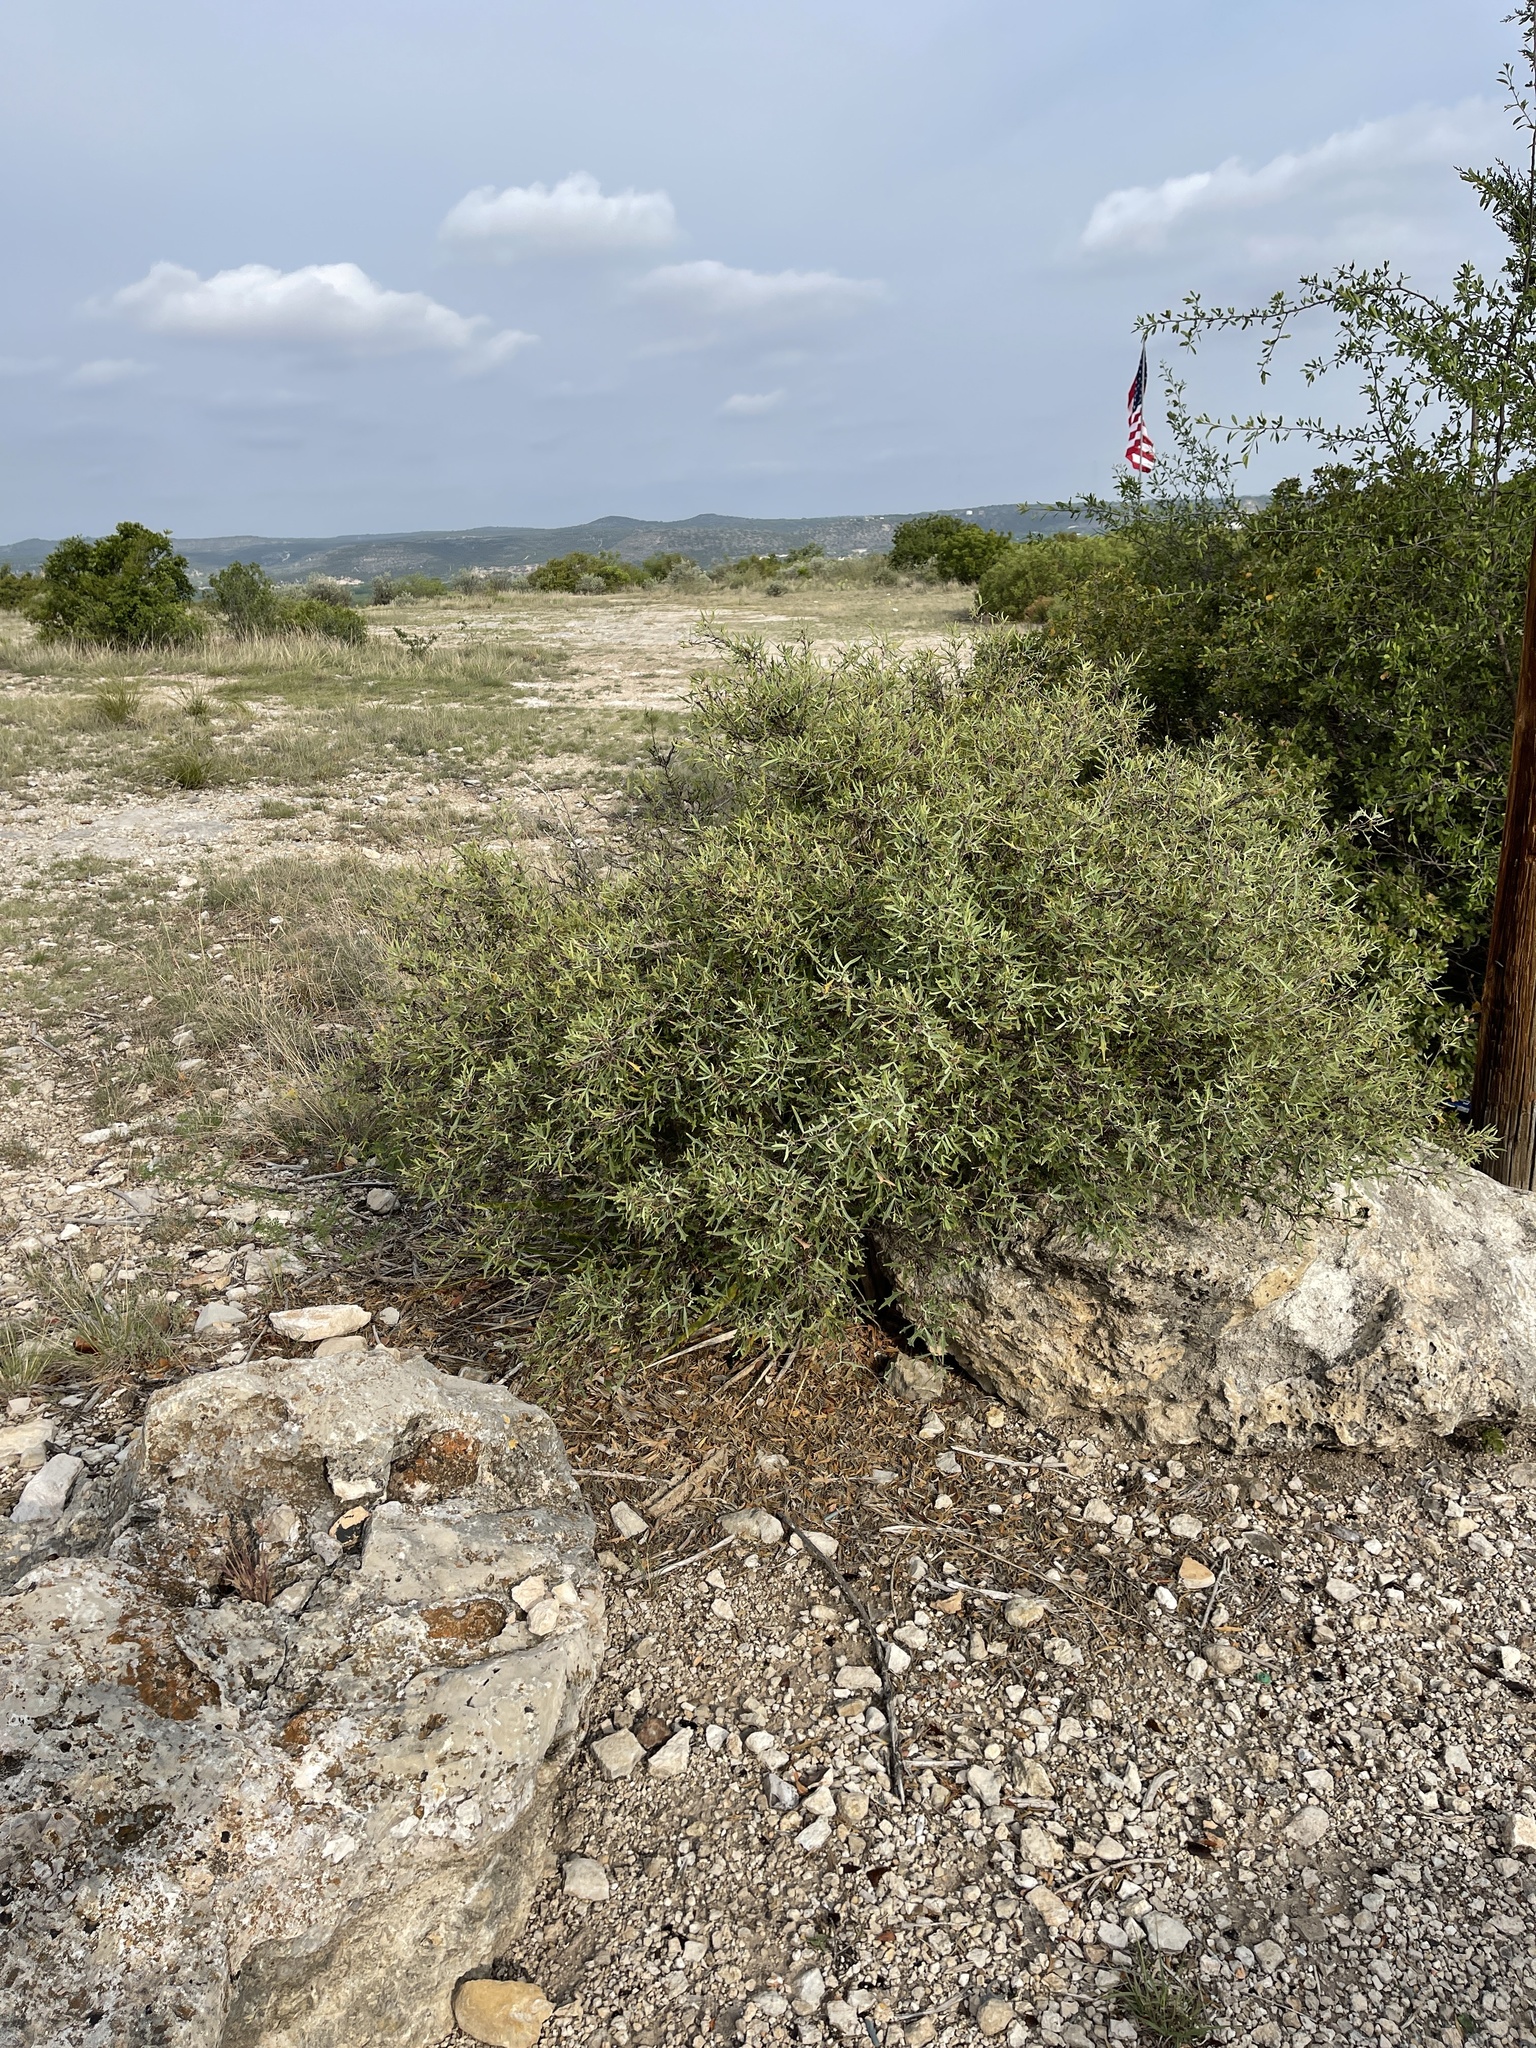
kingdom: Plantae
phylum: Tracheophyta
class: Magnoliopsida
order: Ranunculales
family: Berberidaceae
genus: Alloberberis
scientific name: Alloberberis trifoliolata
